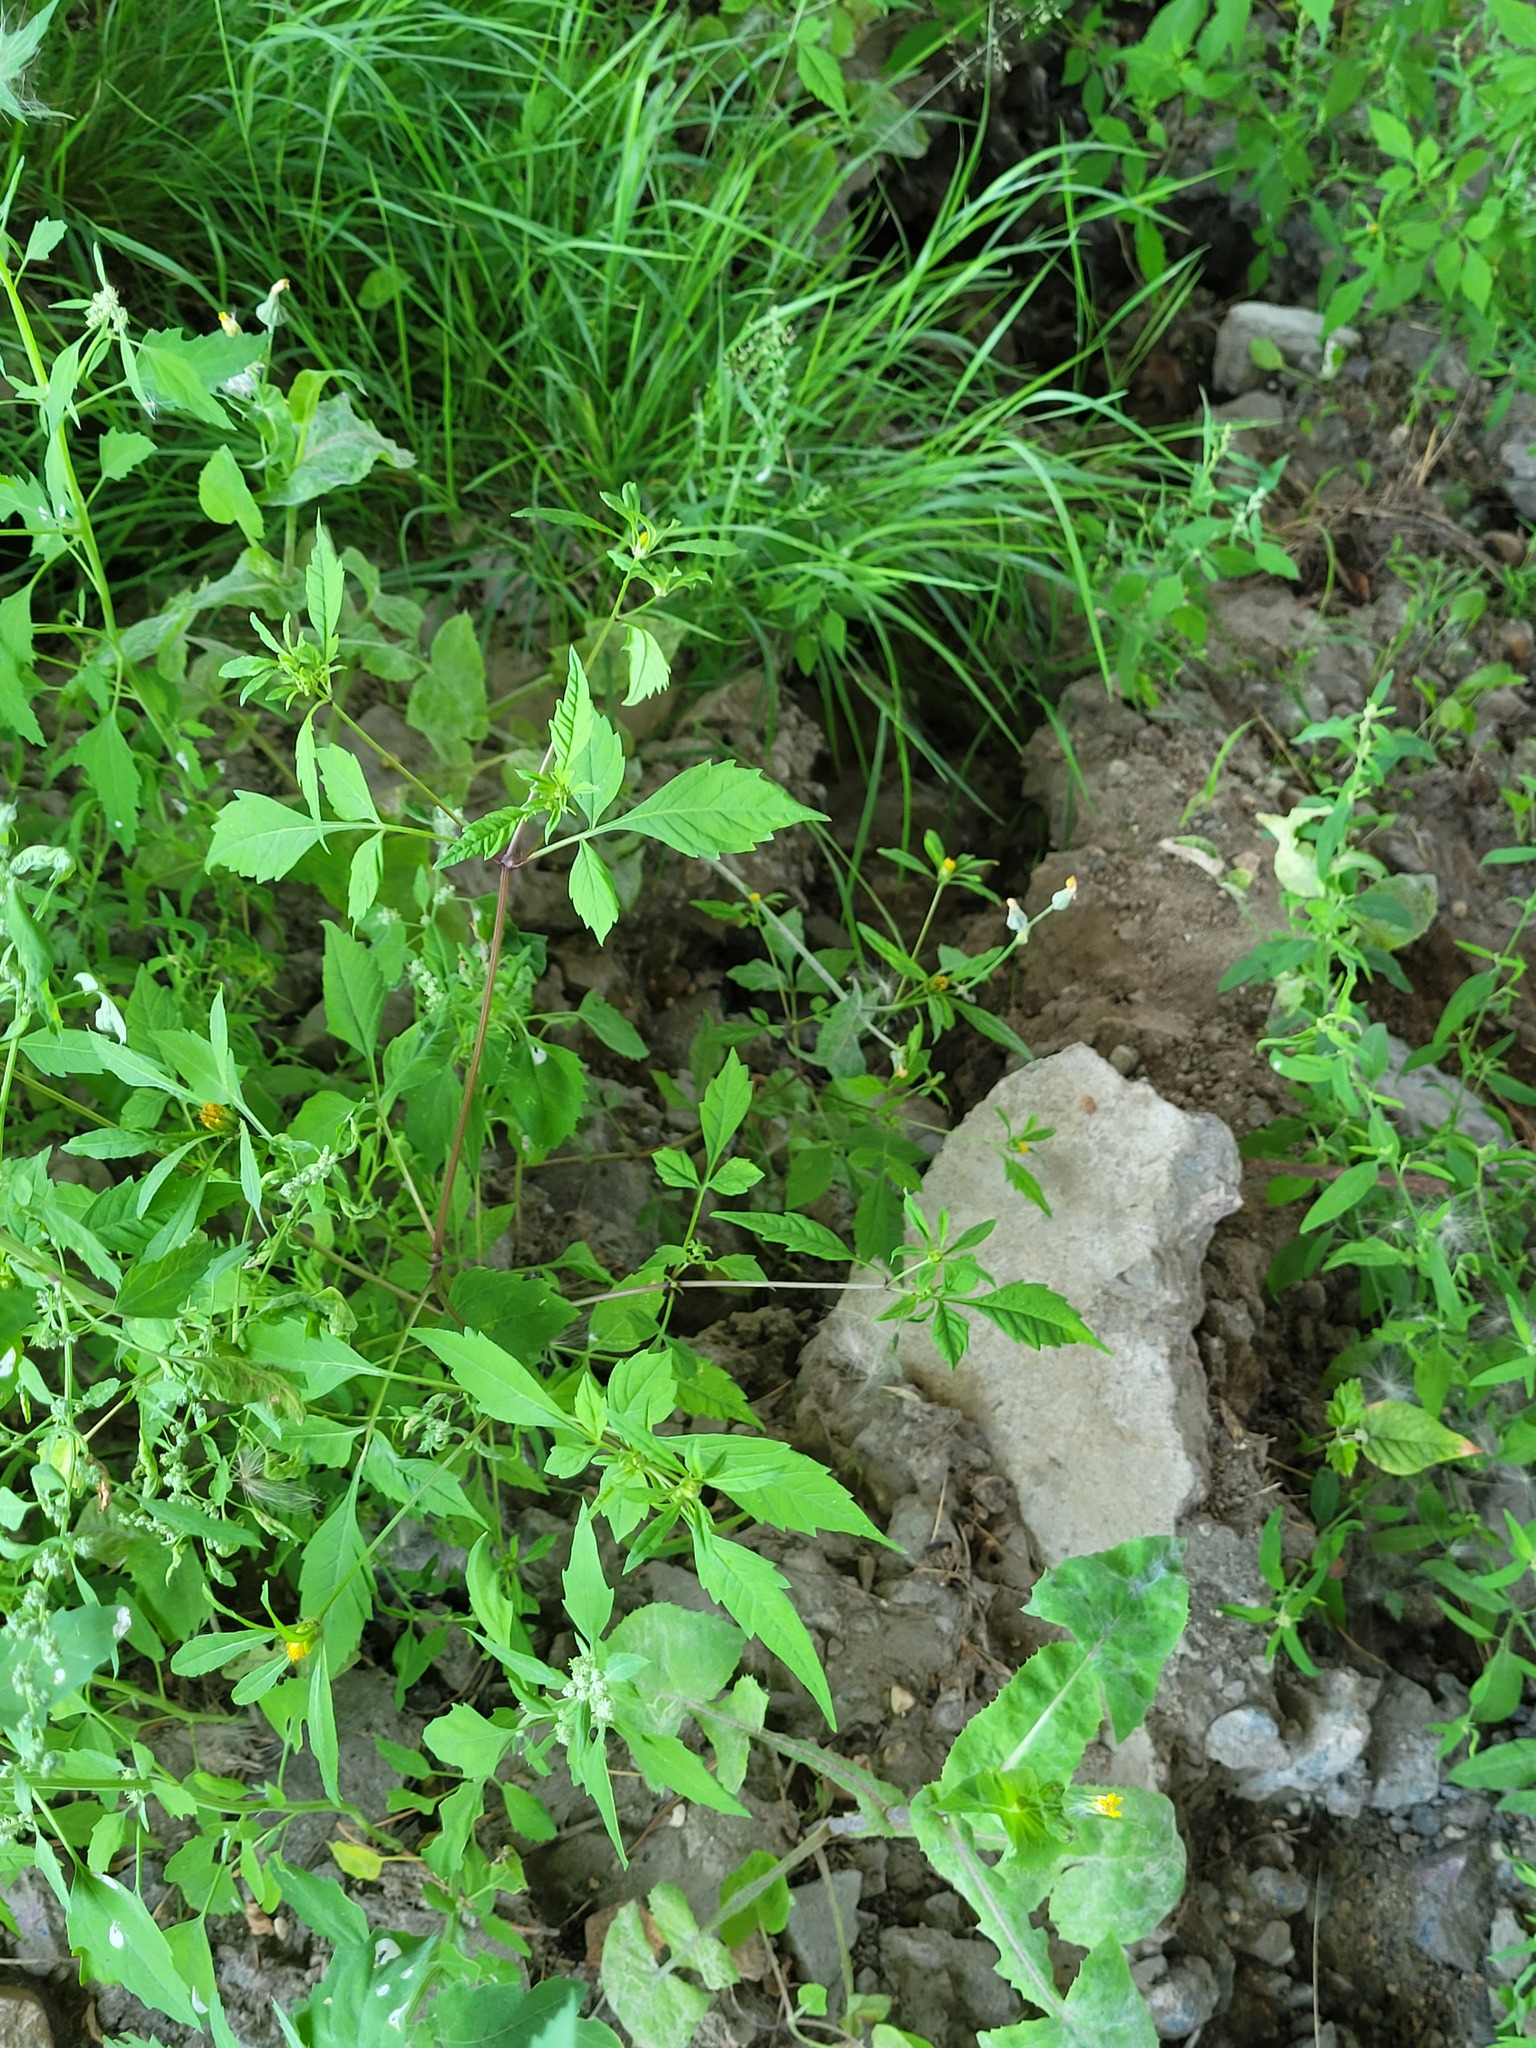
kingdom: Plantae
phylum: Tracheophyta
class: Magnoliopsida
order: Asterales
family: Asteraceae
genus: Bidens
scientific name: Bidens frondosa
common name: Beggarticks
